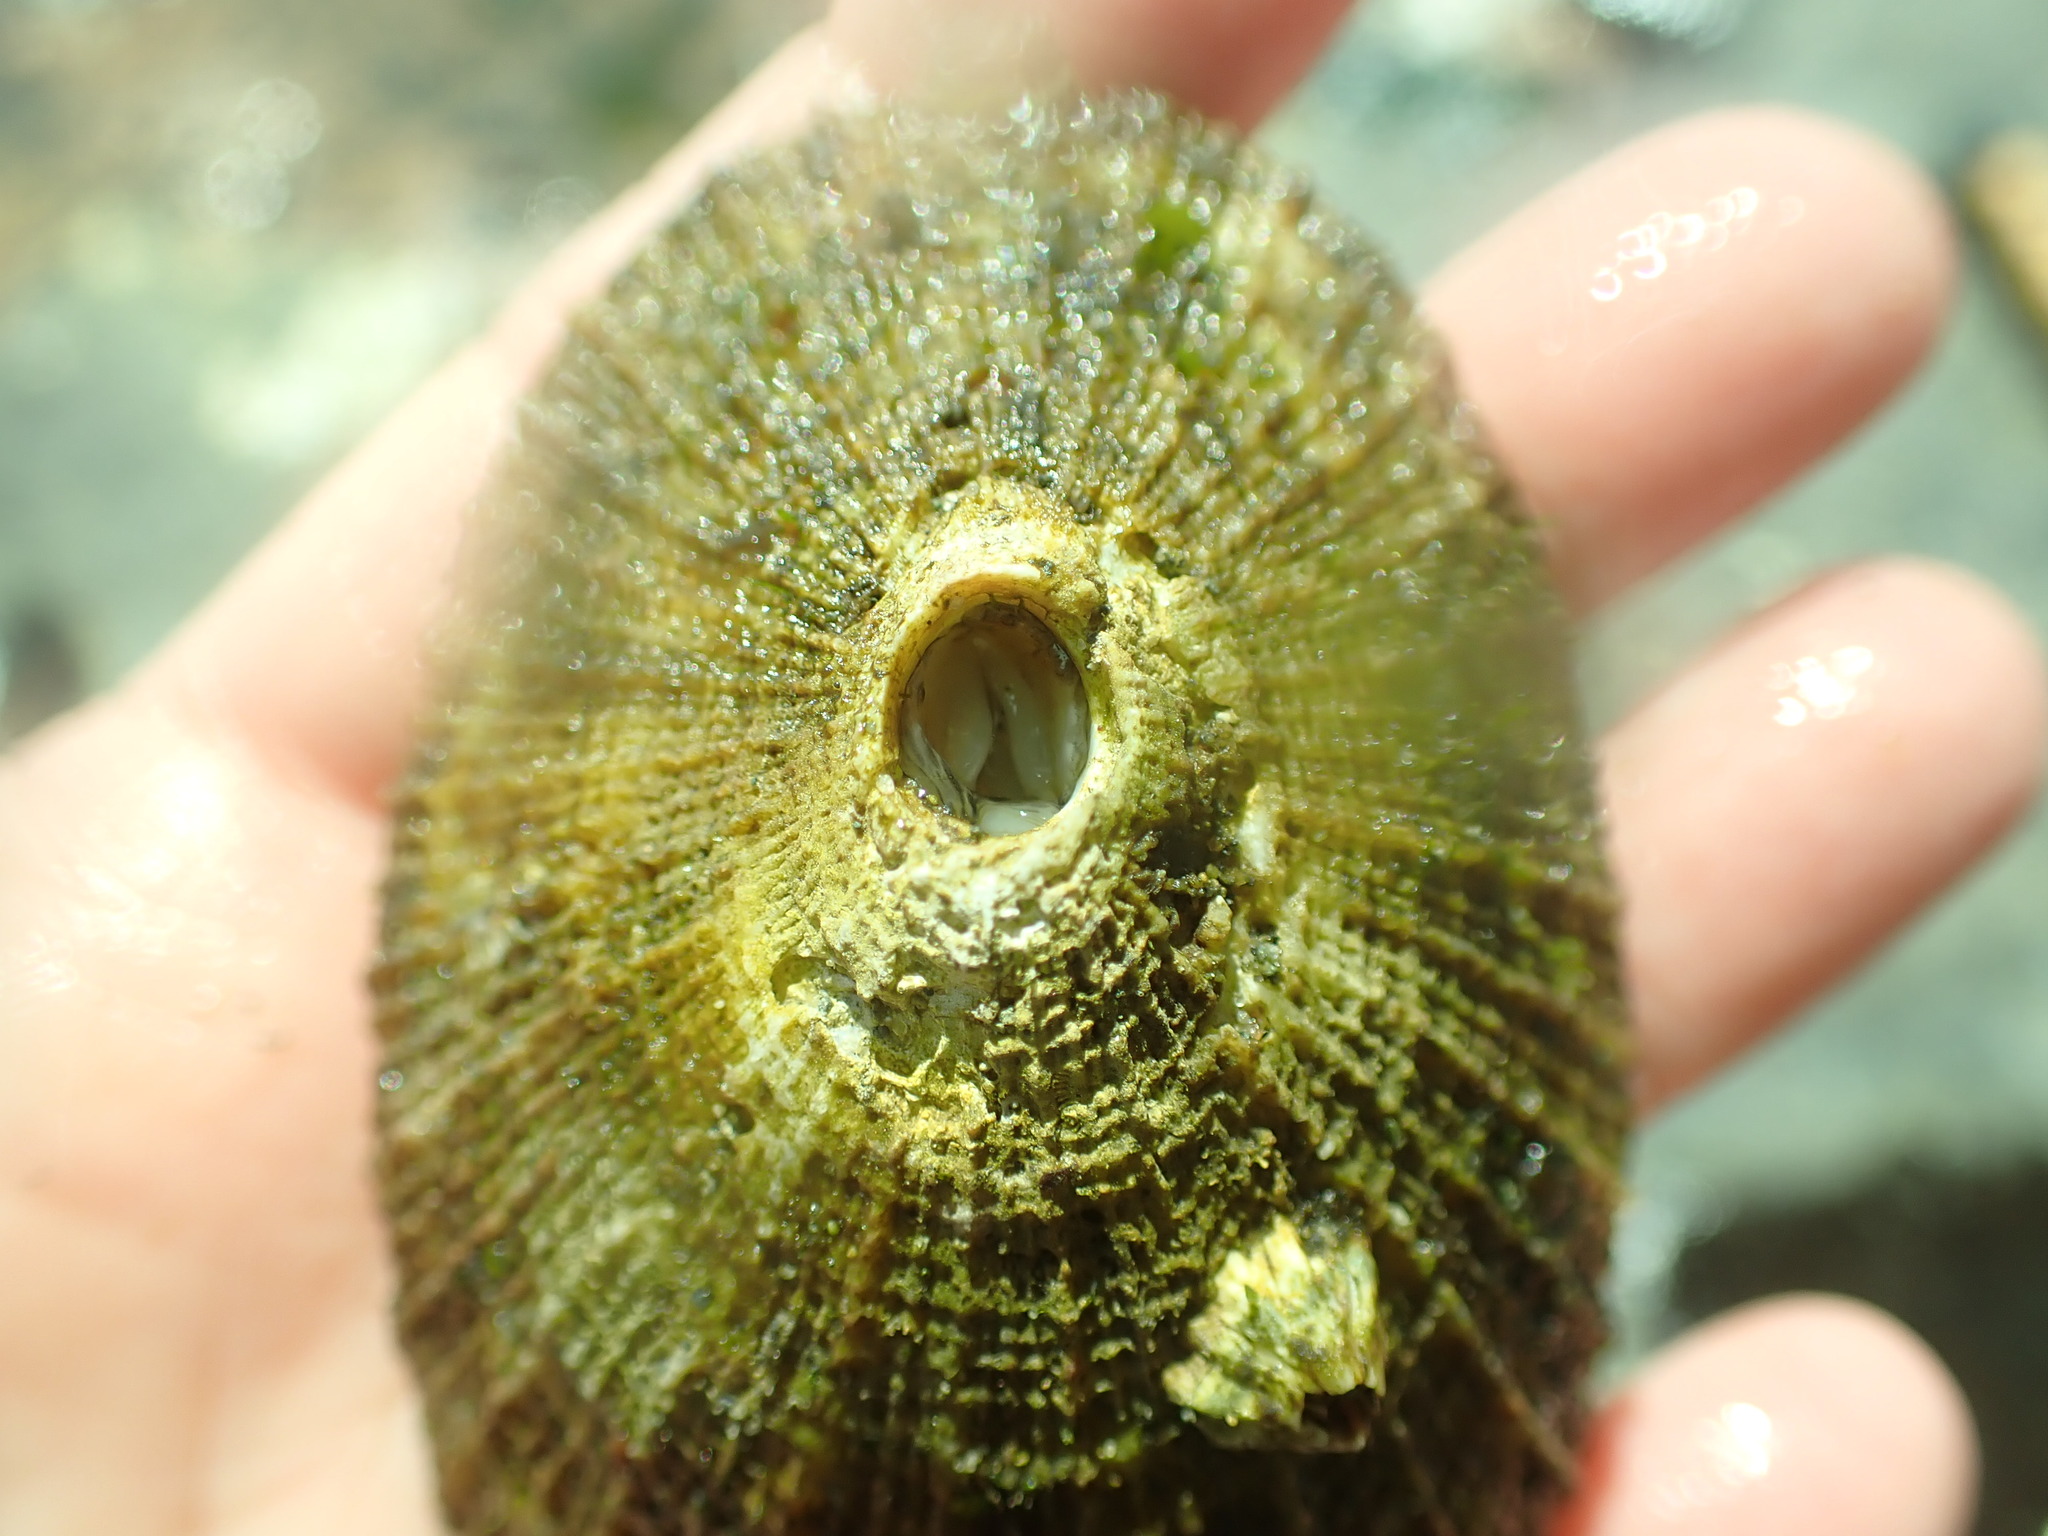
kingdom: Animalia
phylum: Mollusca
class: Gastropoda
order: Lepetellida
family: Fissurellidae
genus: Diodora
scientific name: Diodora aspera
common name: Rough keyhole limpet
